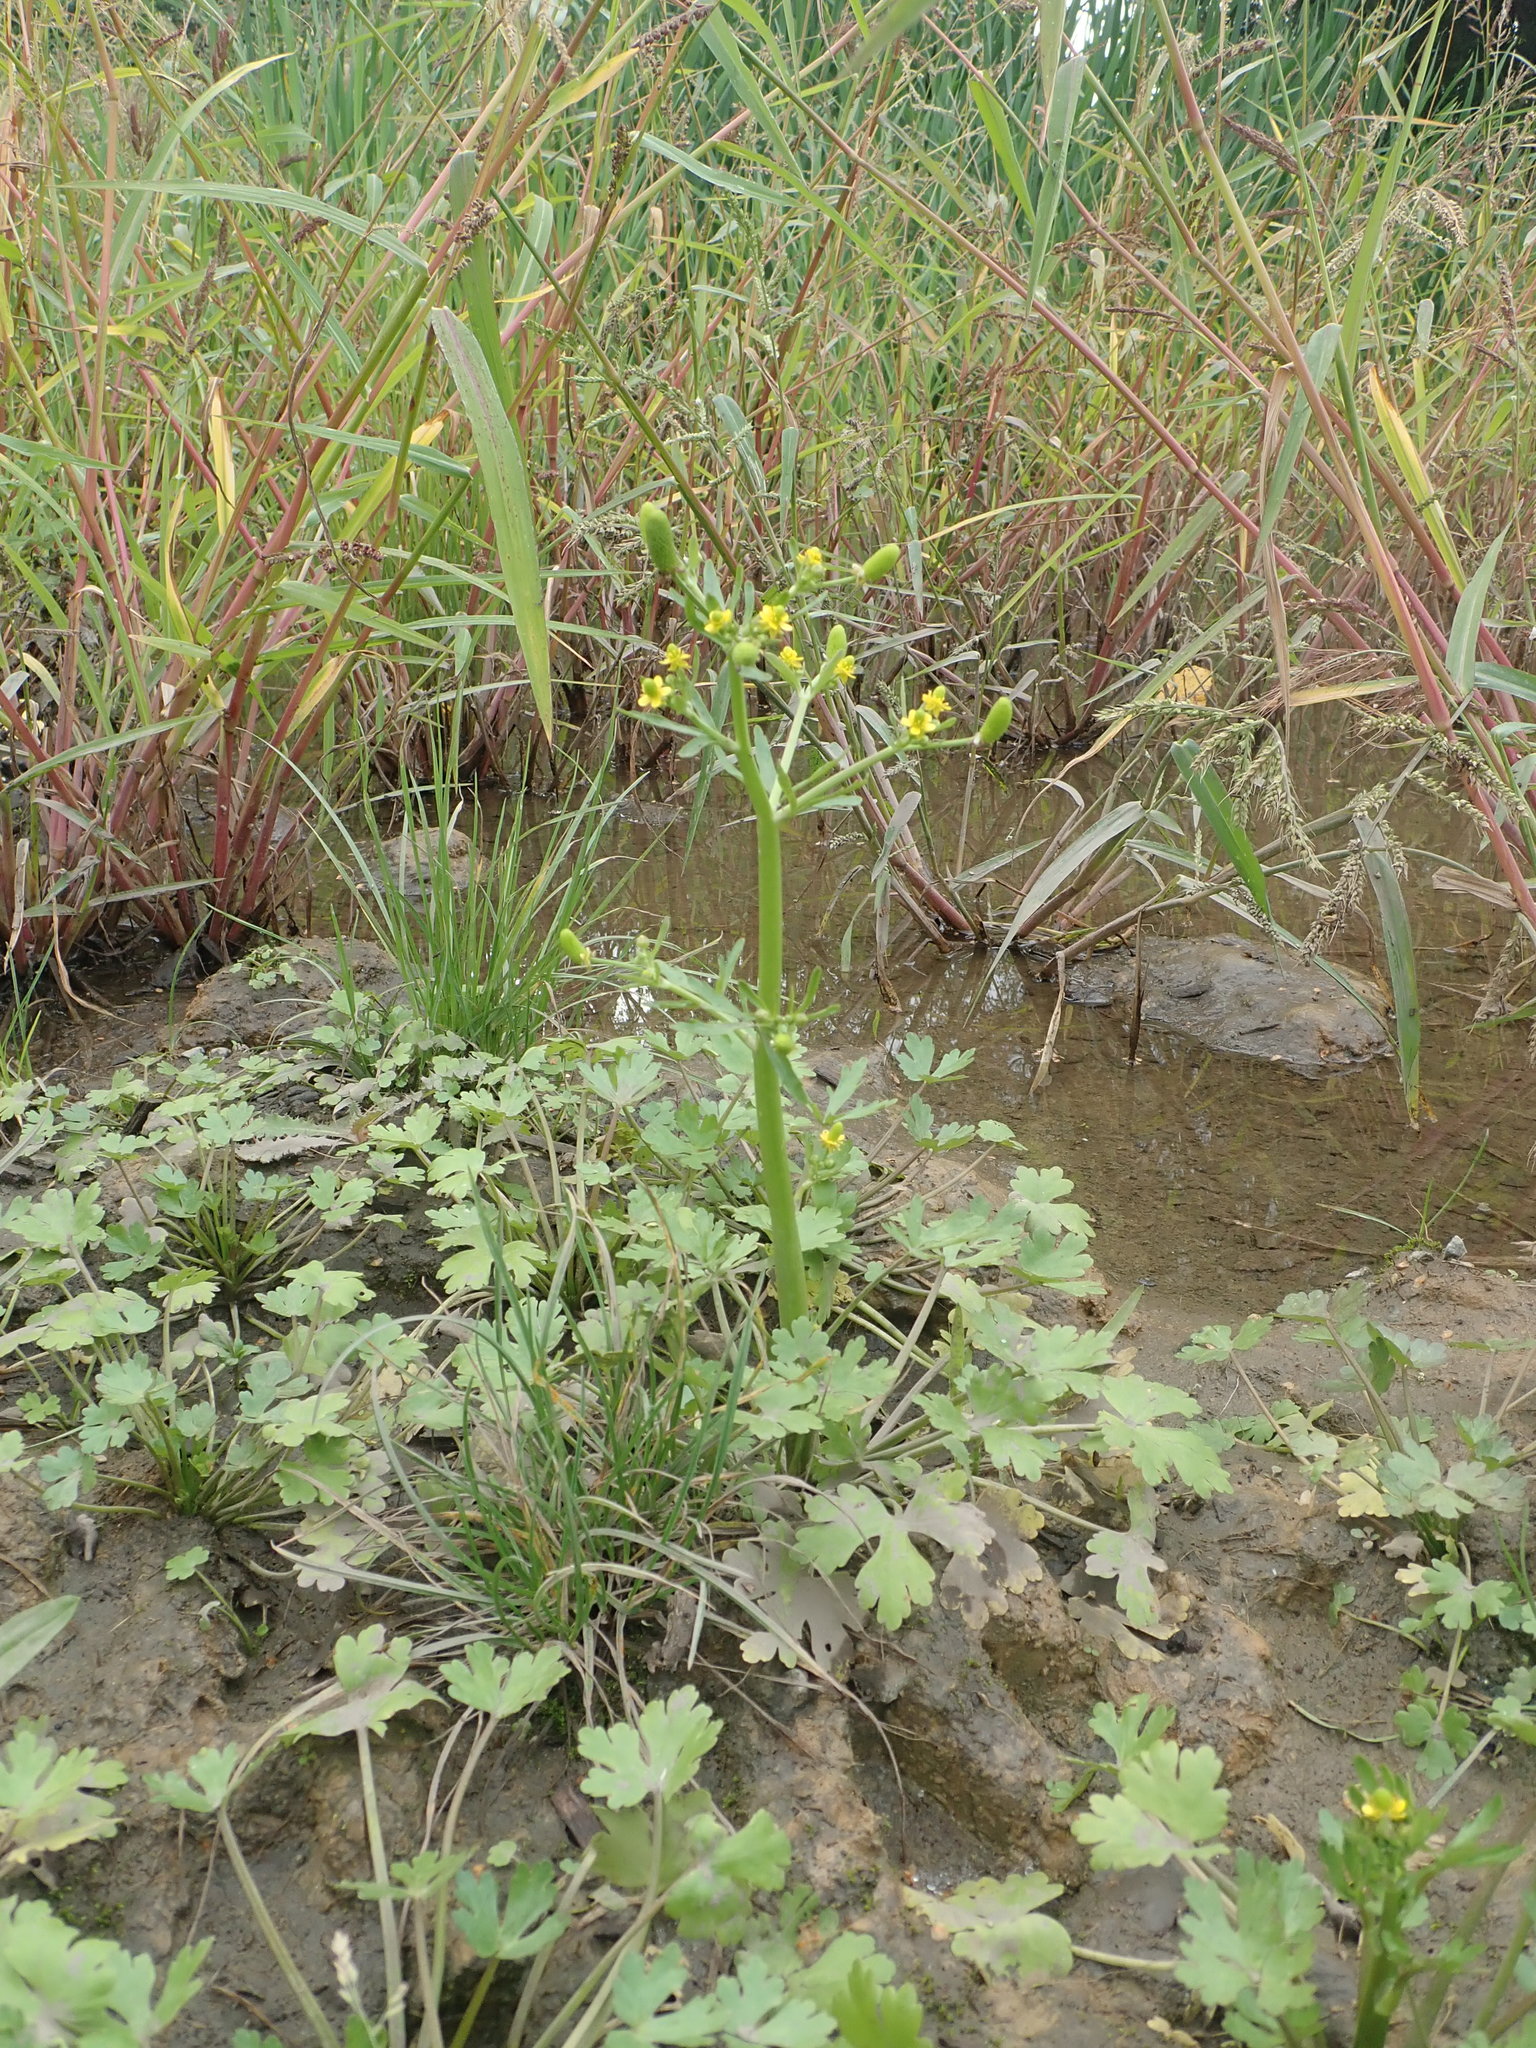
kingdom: Plantae
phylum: Tracheophyta
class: Magnoliopsida
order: Ranunculales
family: Ranunculaceae
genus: Ranunculus
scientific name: Ranunculus sceleratus
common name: Celery-leaved buttercup
